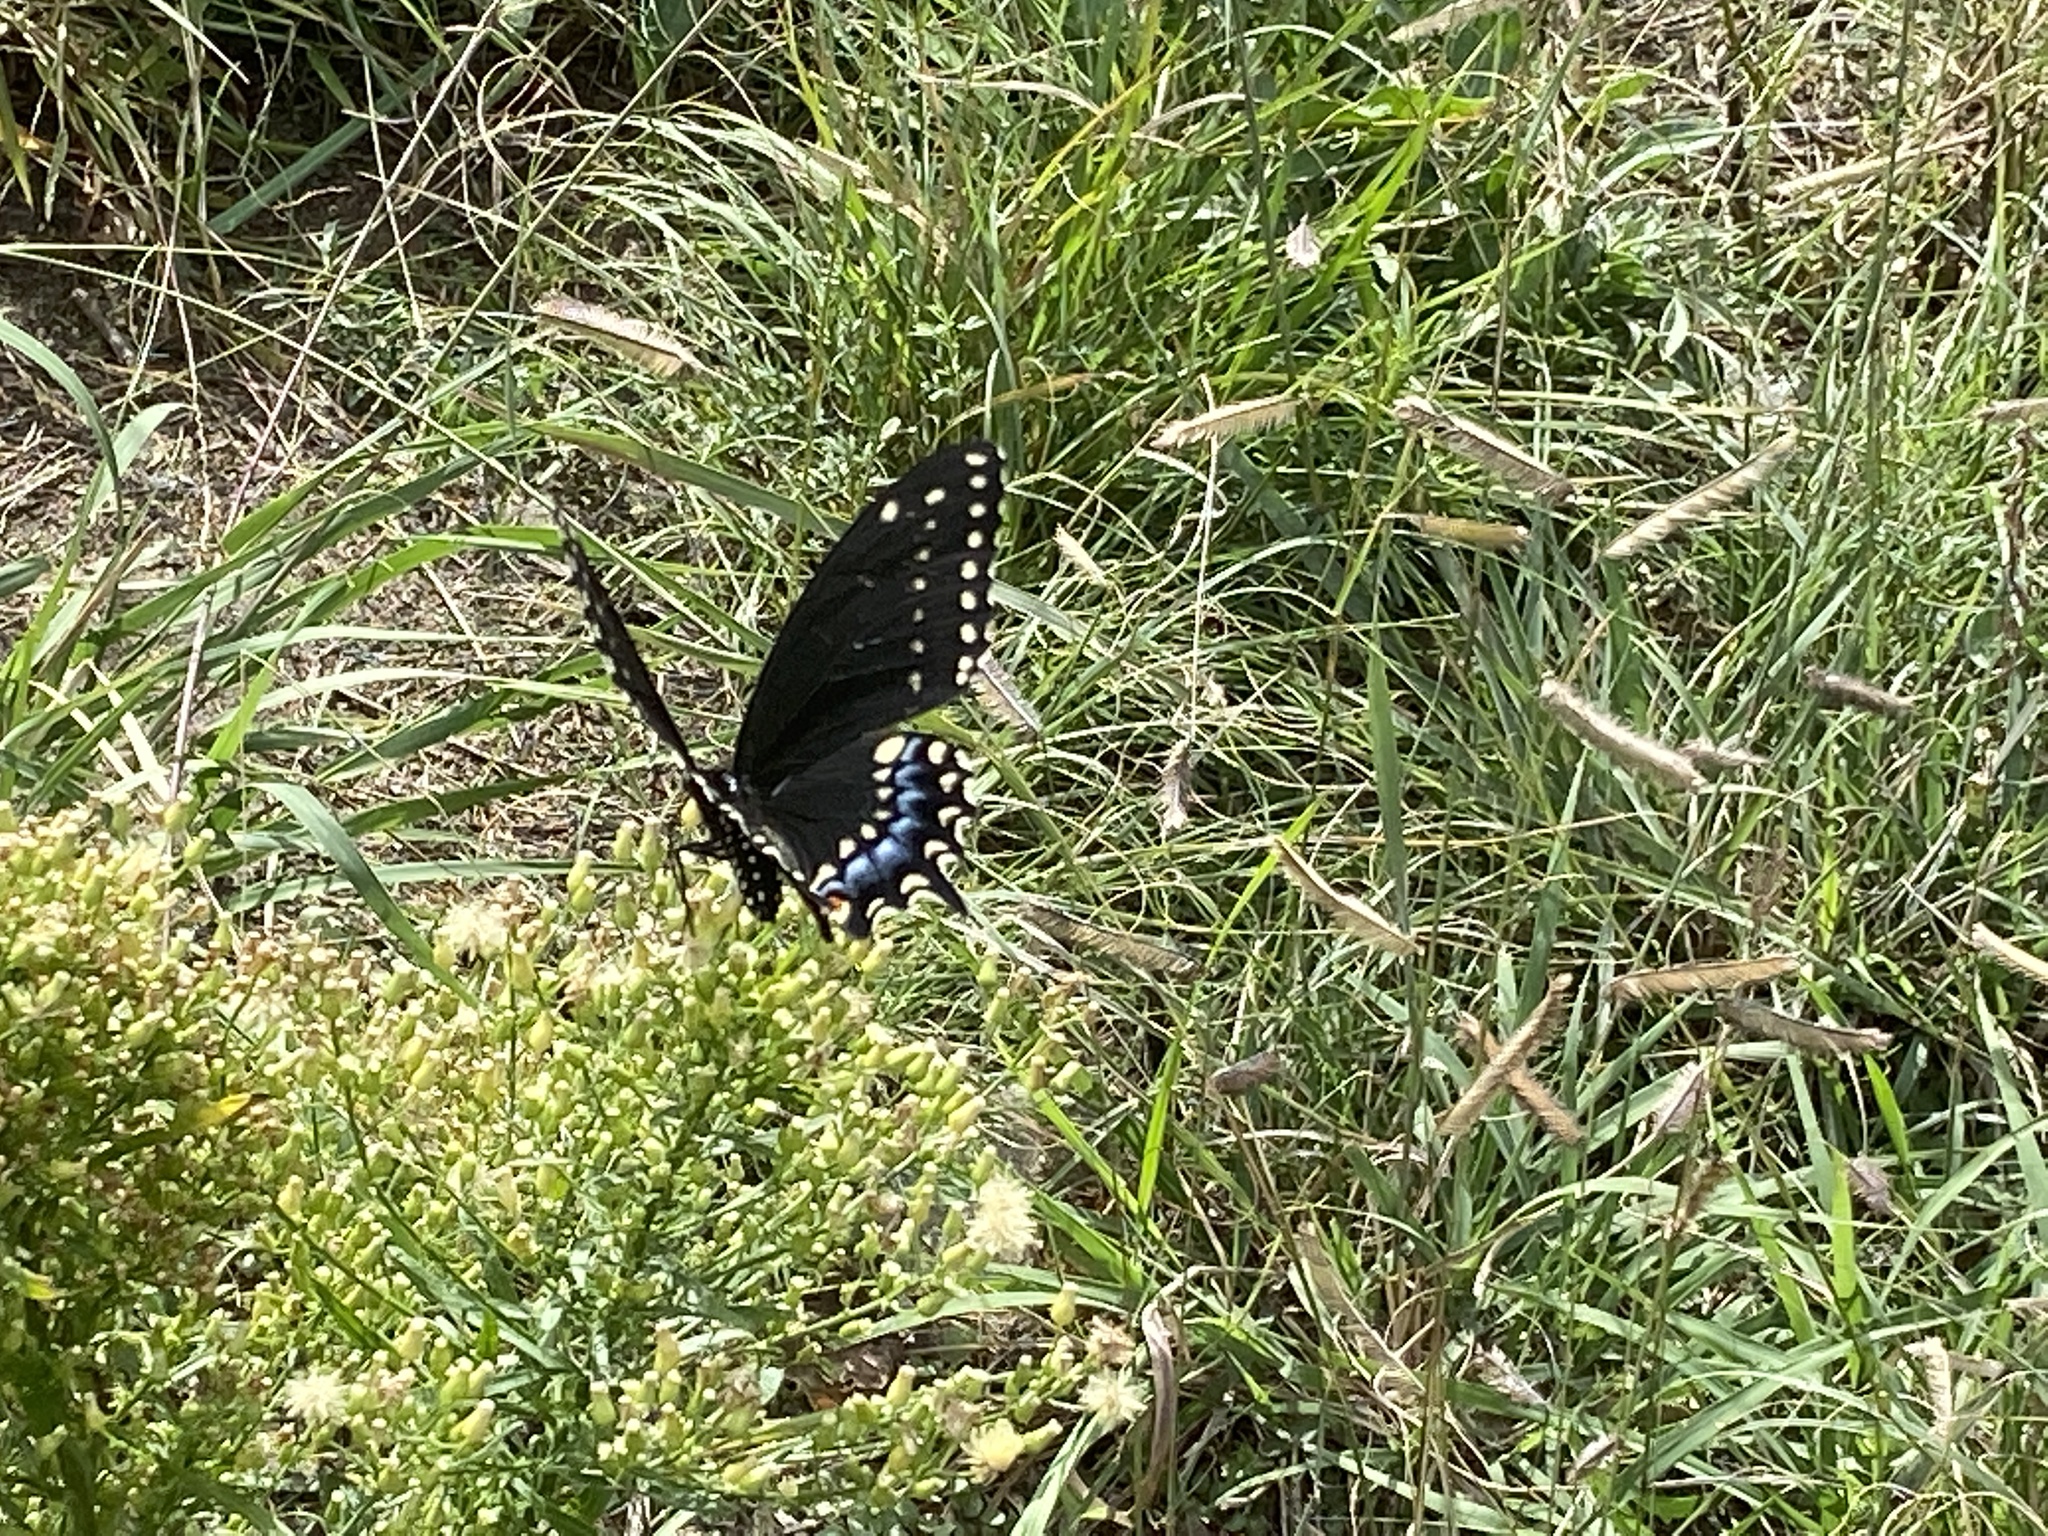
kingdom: Animalia
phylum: Arthropoda
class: Insecta
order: Lepidoptera
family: Papilionidae
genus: Papilio
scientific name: Papilio polyxenes
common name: Black swallowtail
